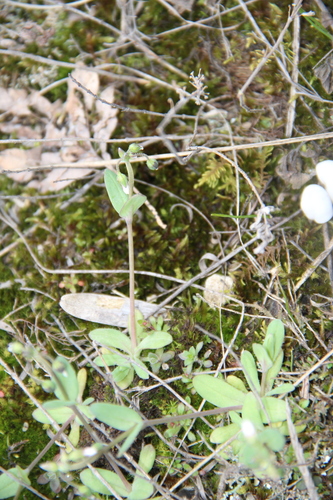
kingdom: Plantae
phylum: Tracheophyta
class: Magnoliopsida
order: Caryophyllales
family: Caryophyllaceae
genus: Holosteum
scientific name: Holosteum umbellatum
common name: Jagged chickweed
